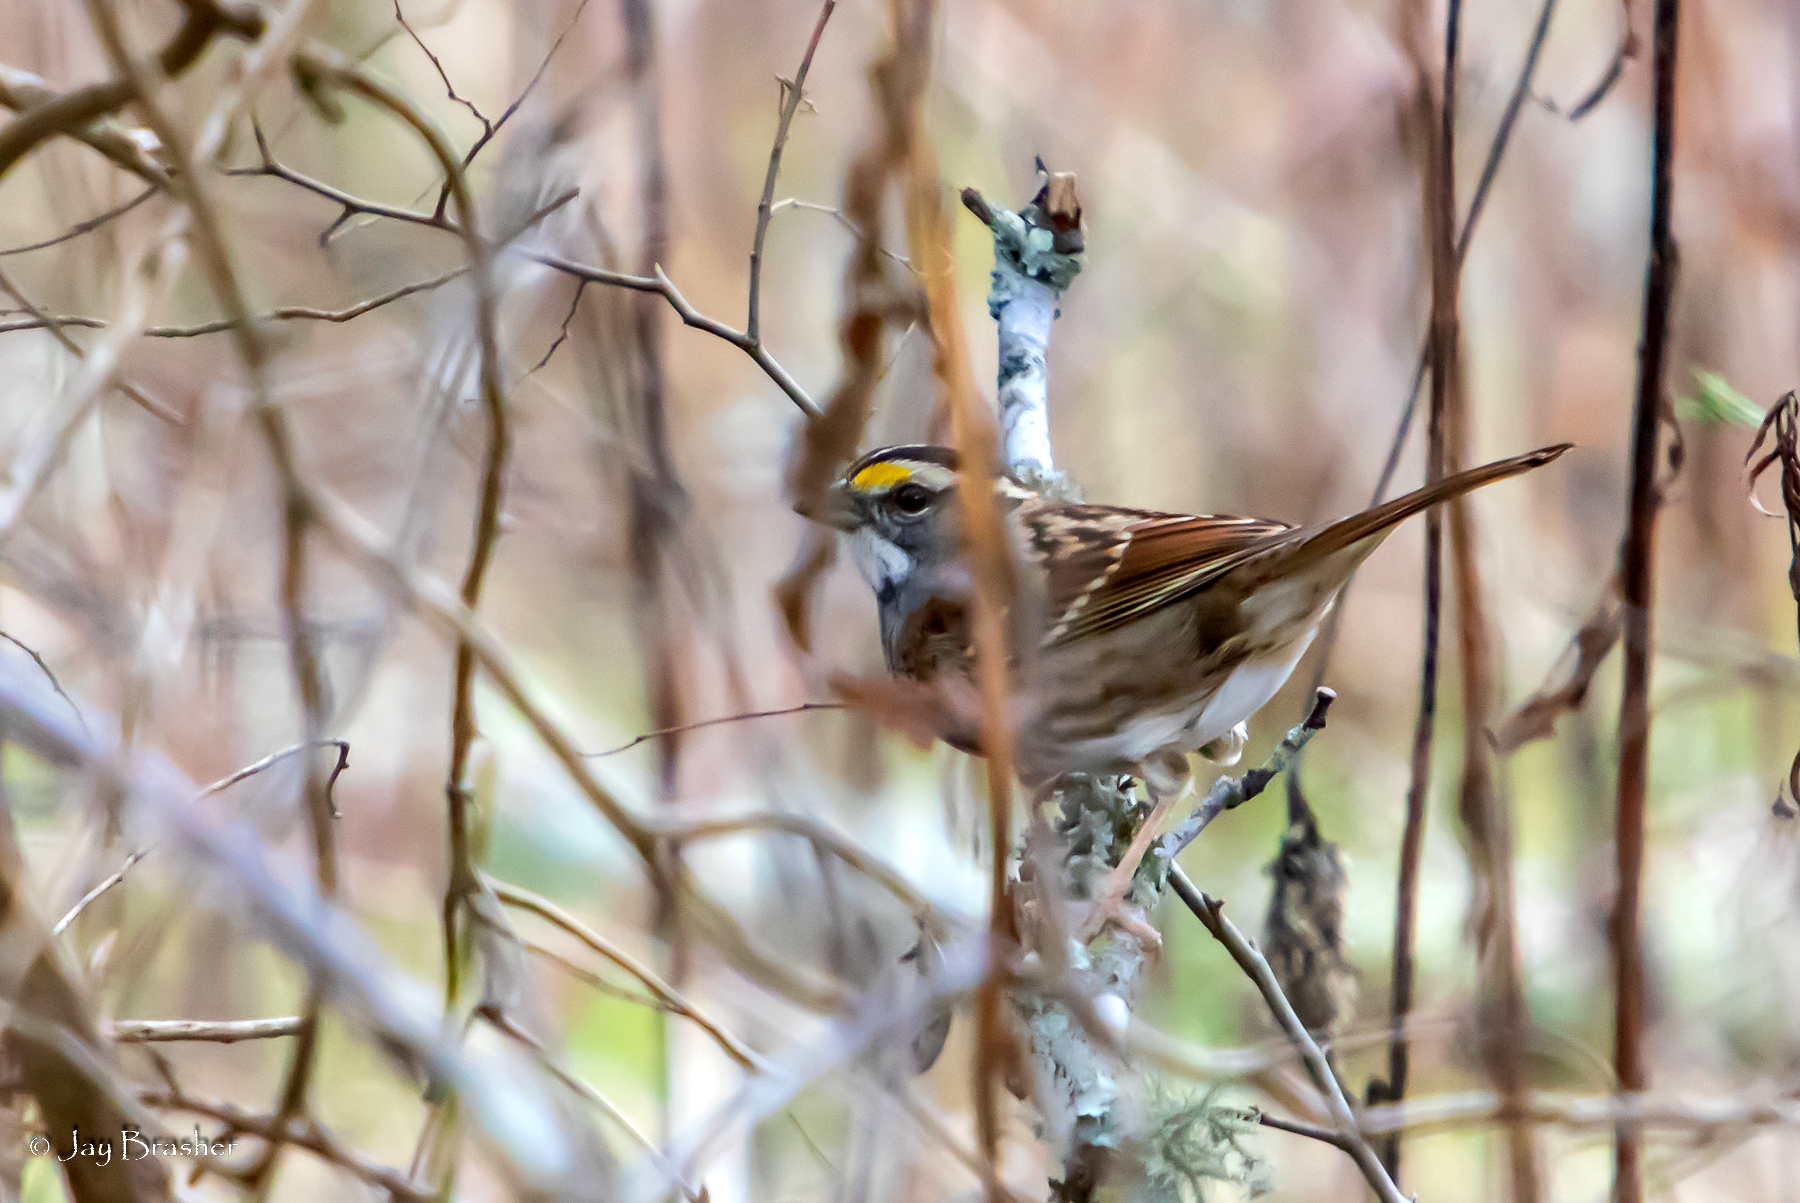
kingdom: Animalia
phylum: Chordata
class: Aves
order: Passeriformes
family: Passerellidae
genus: Zonotrichia
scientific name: Zonotrichia albicollis
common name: White-throated sparrow
